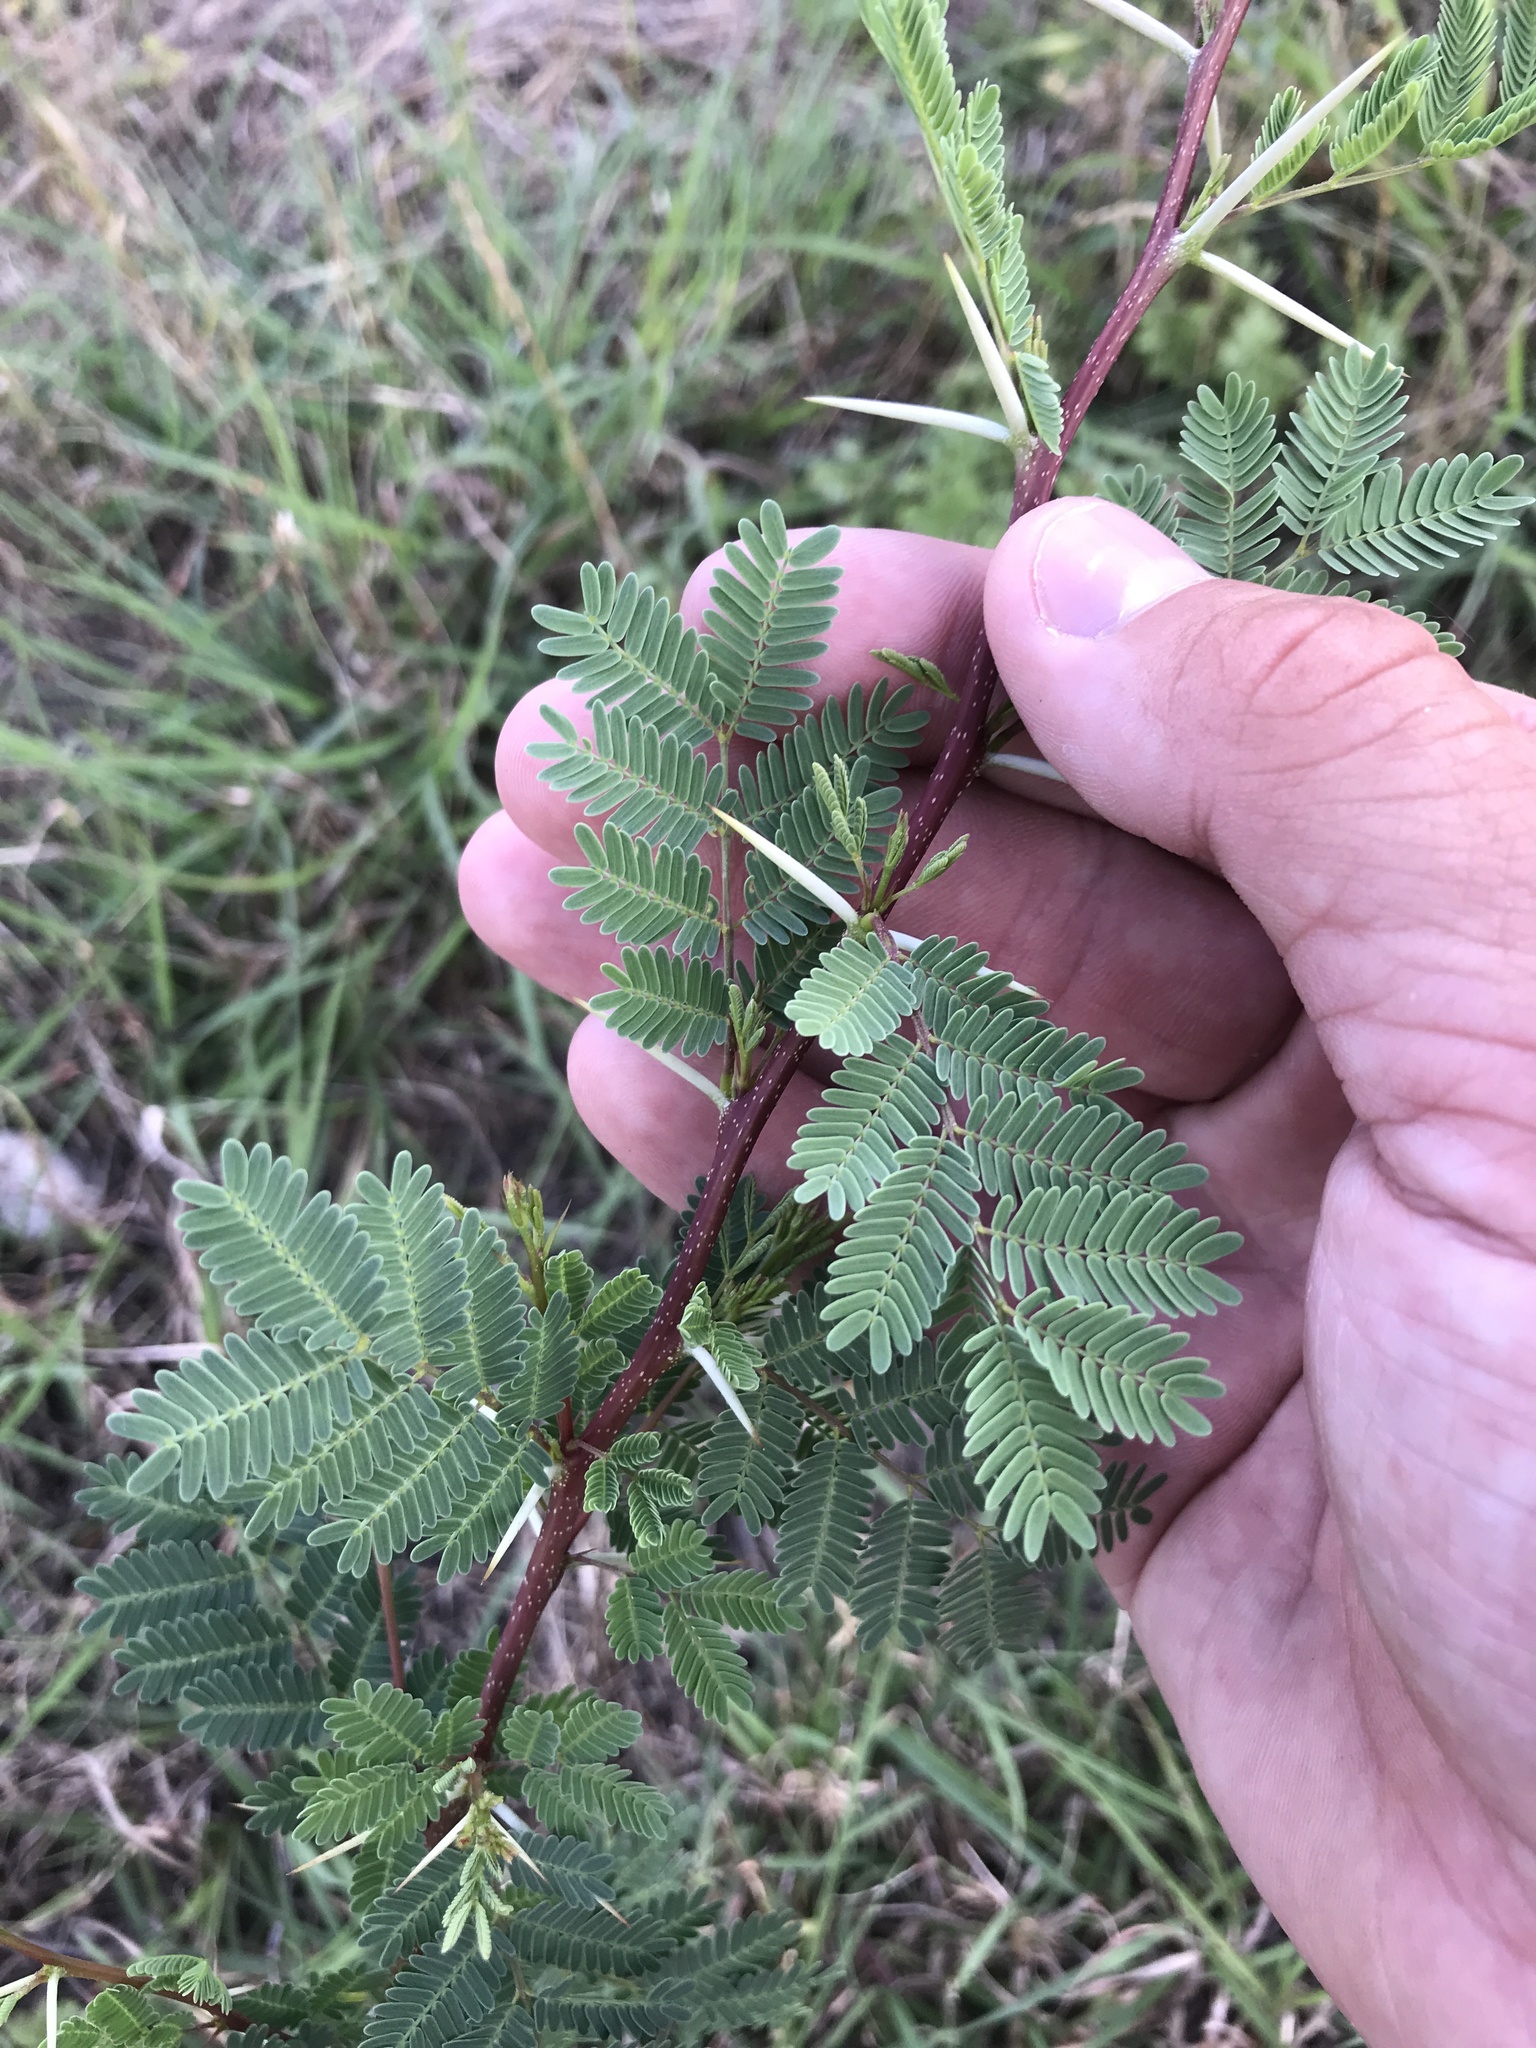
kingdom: Plantae
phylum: Tracheophyta
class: Magnoliopsida
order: Fabales
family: Fabaceae
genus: Vachellia
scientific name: Vachellia farnesiana
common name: Sweet acacia
